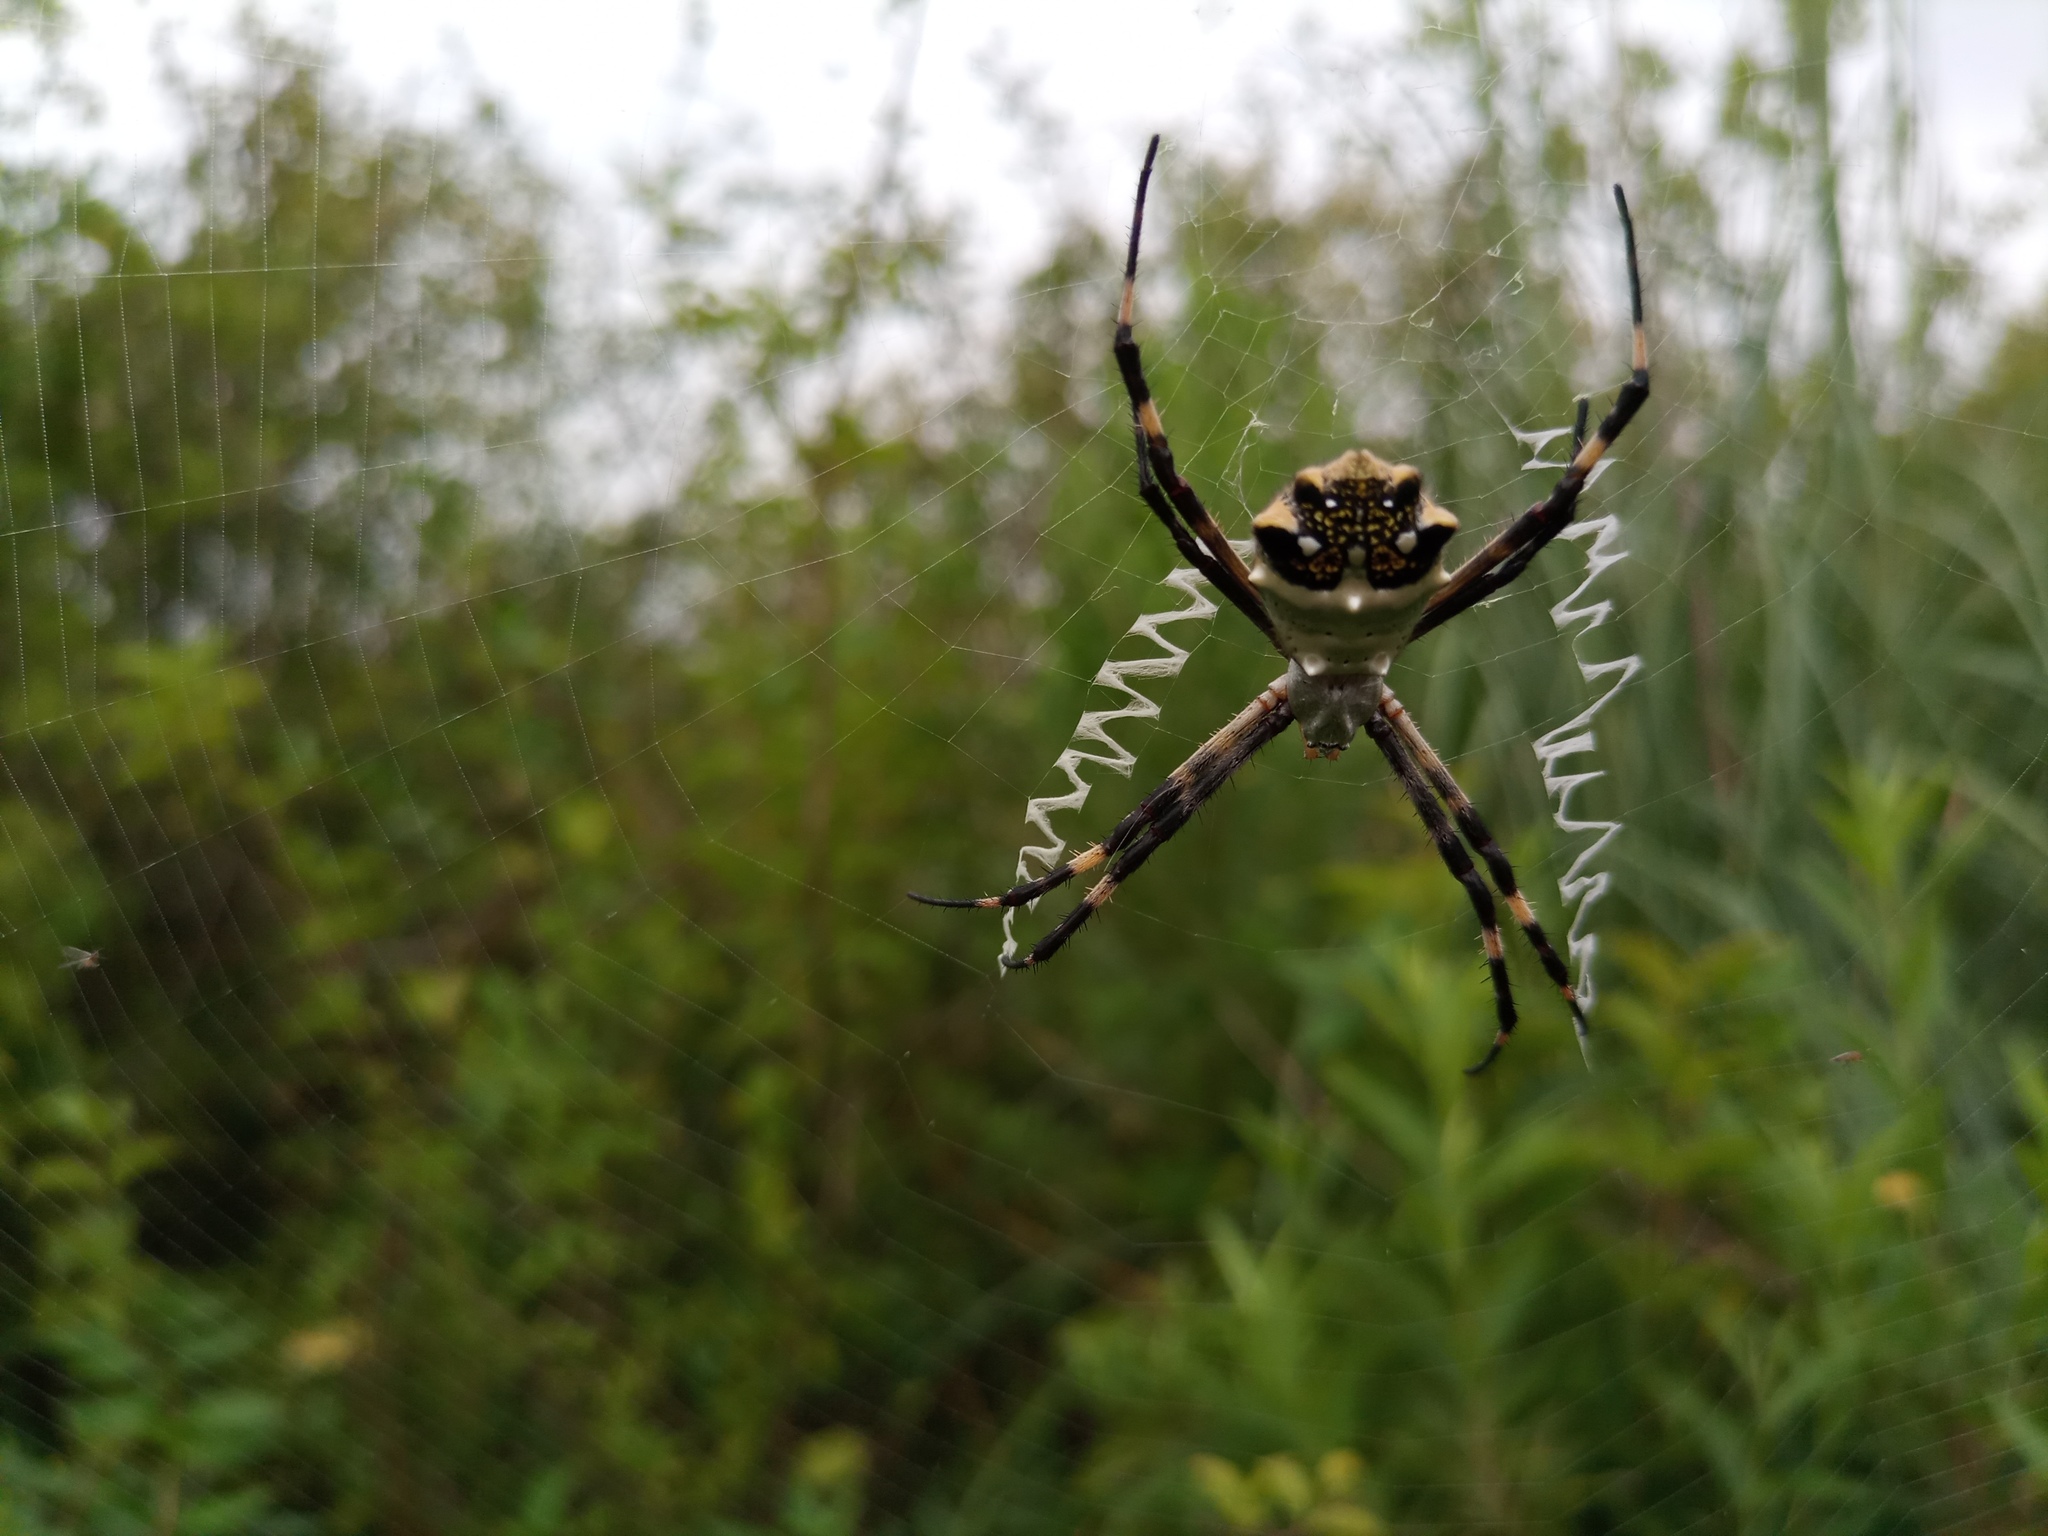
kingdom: Animalia
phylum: Arthropoda
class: Arachnida
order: Araneae
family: Araneidae
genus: Argiope
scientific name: Argiope argentata
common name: Orb weavers
